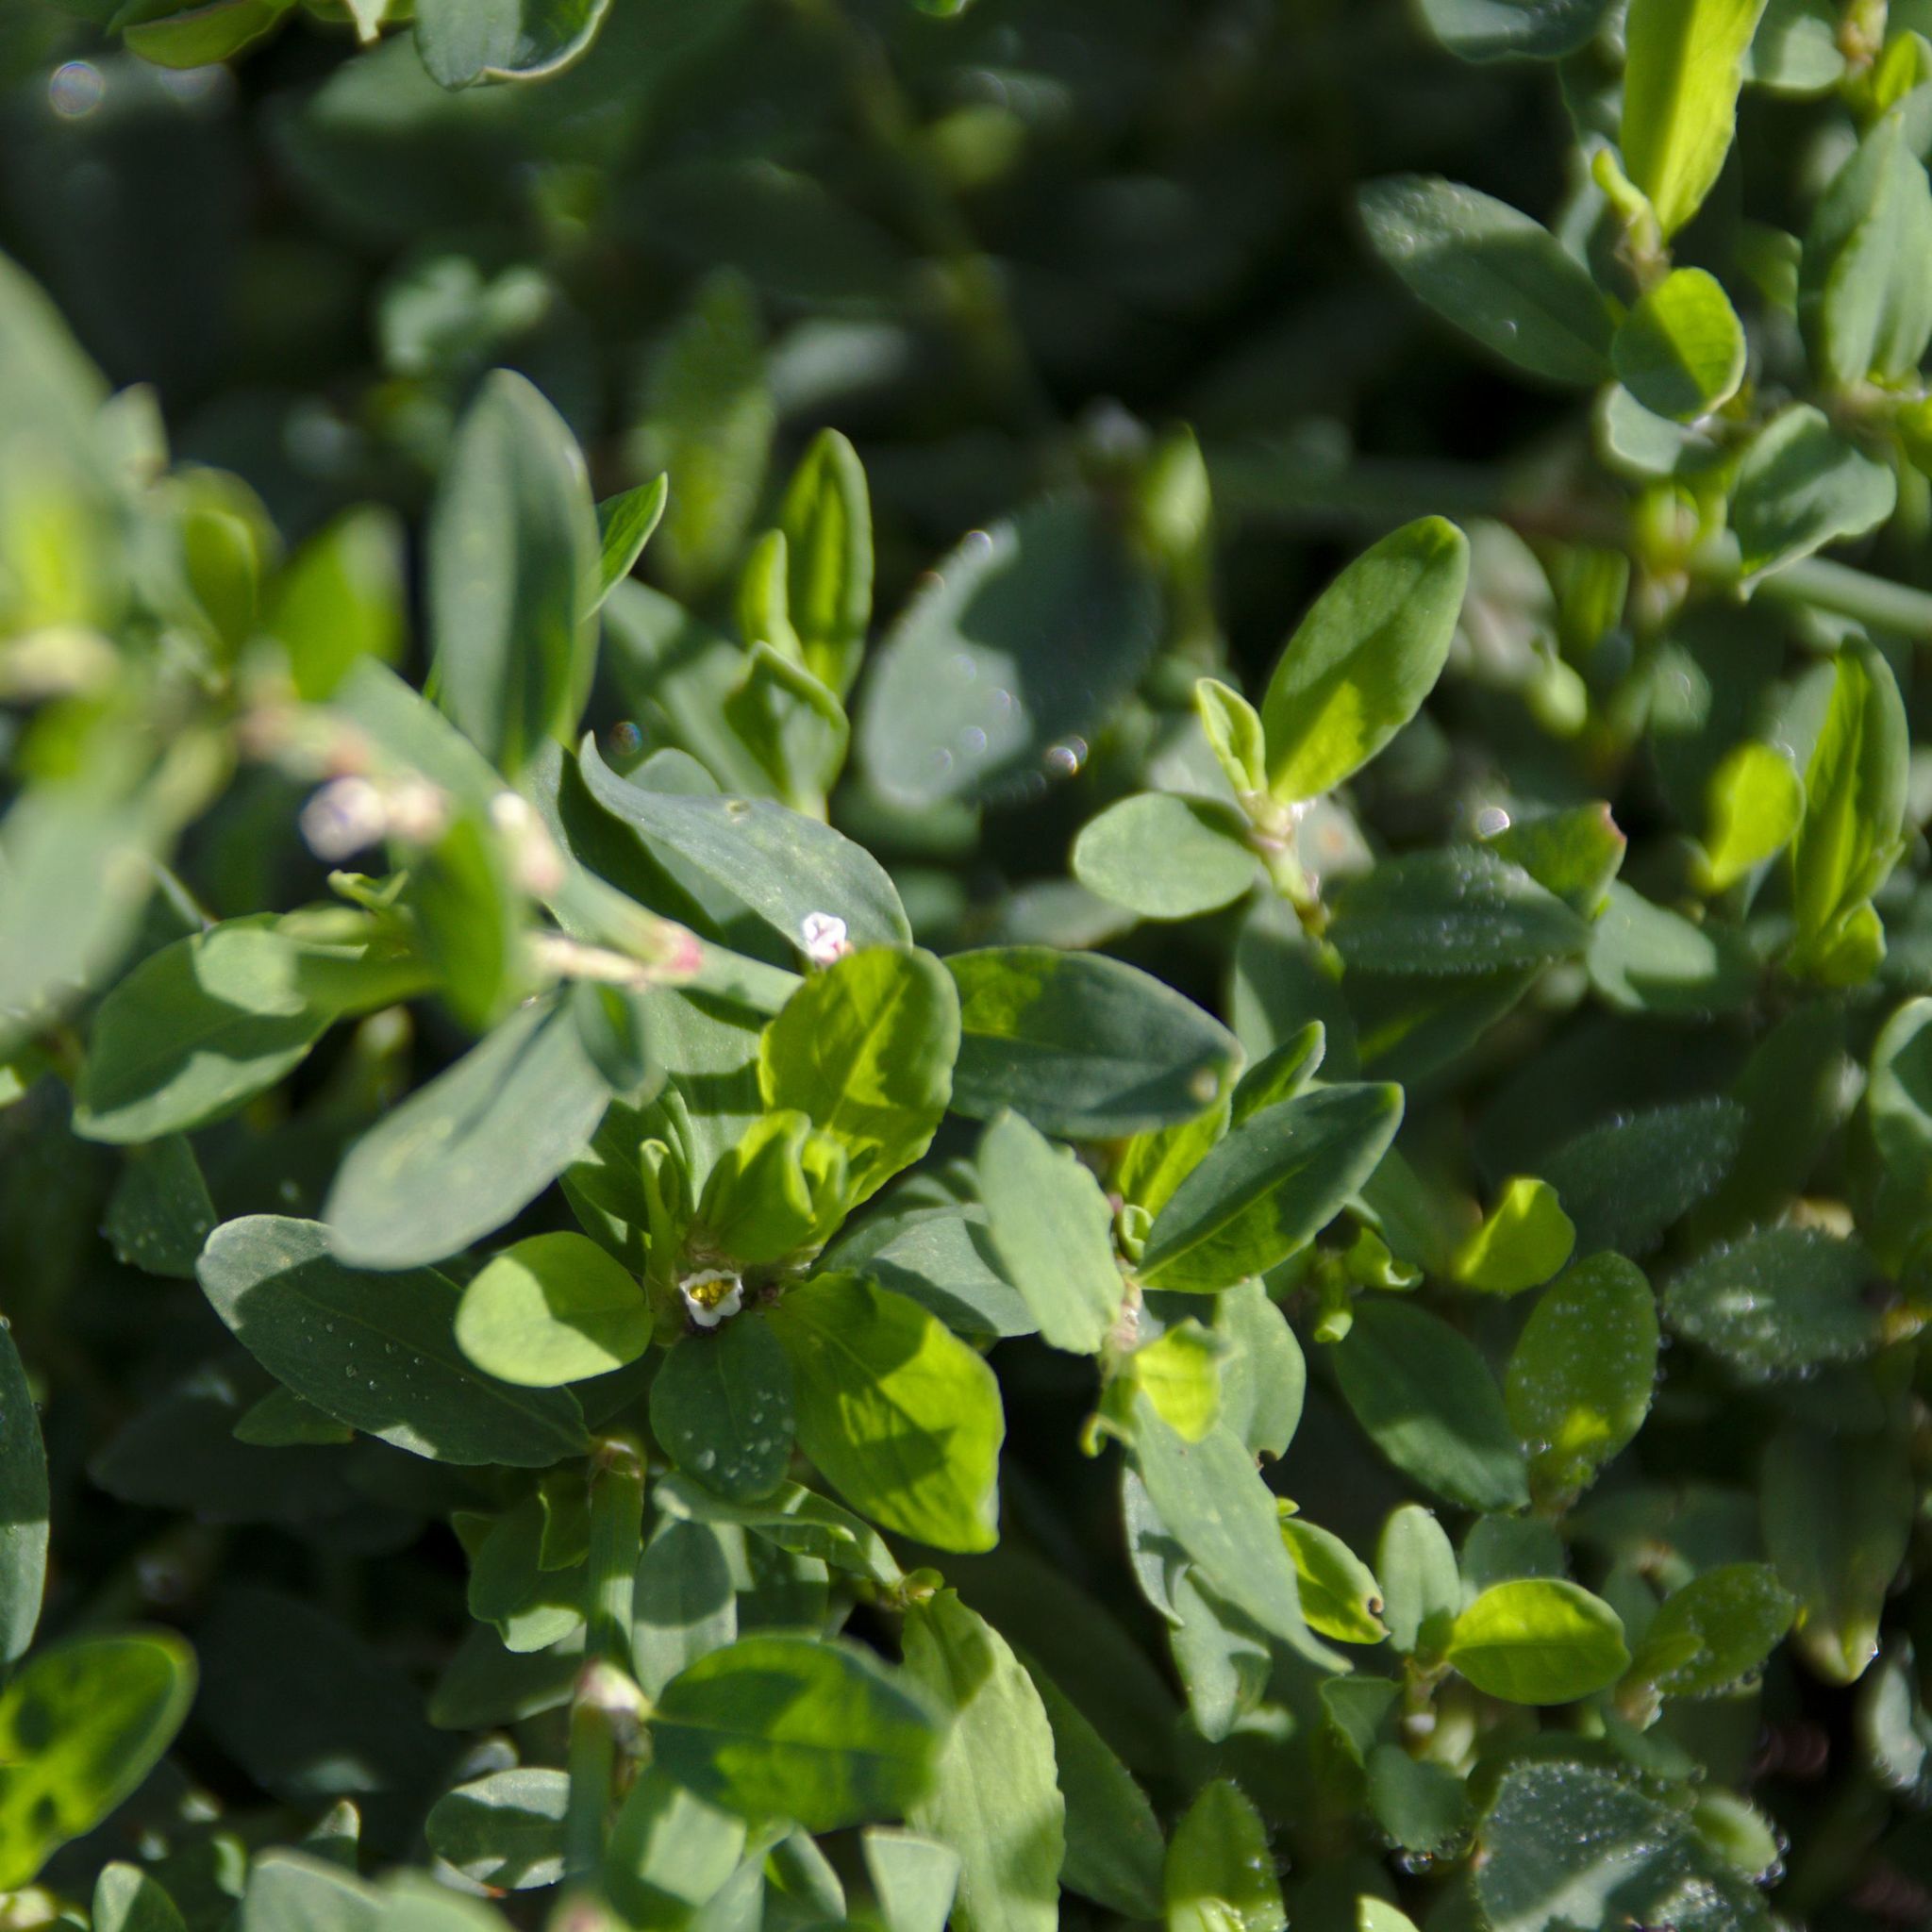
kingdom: Plantae
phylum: Tracheophyta
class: Magnoliopsida
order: Caryophyllales
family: Polygonaceae
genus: Polygonum
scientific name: Polygonum arenastrum
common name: Equal-leaved knotgrass
